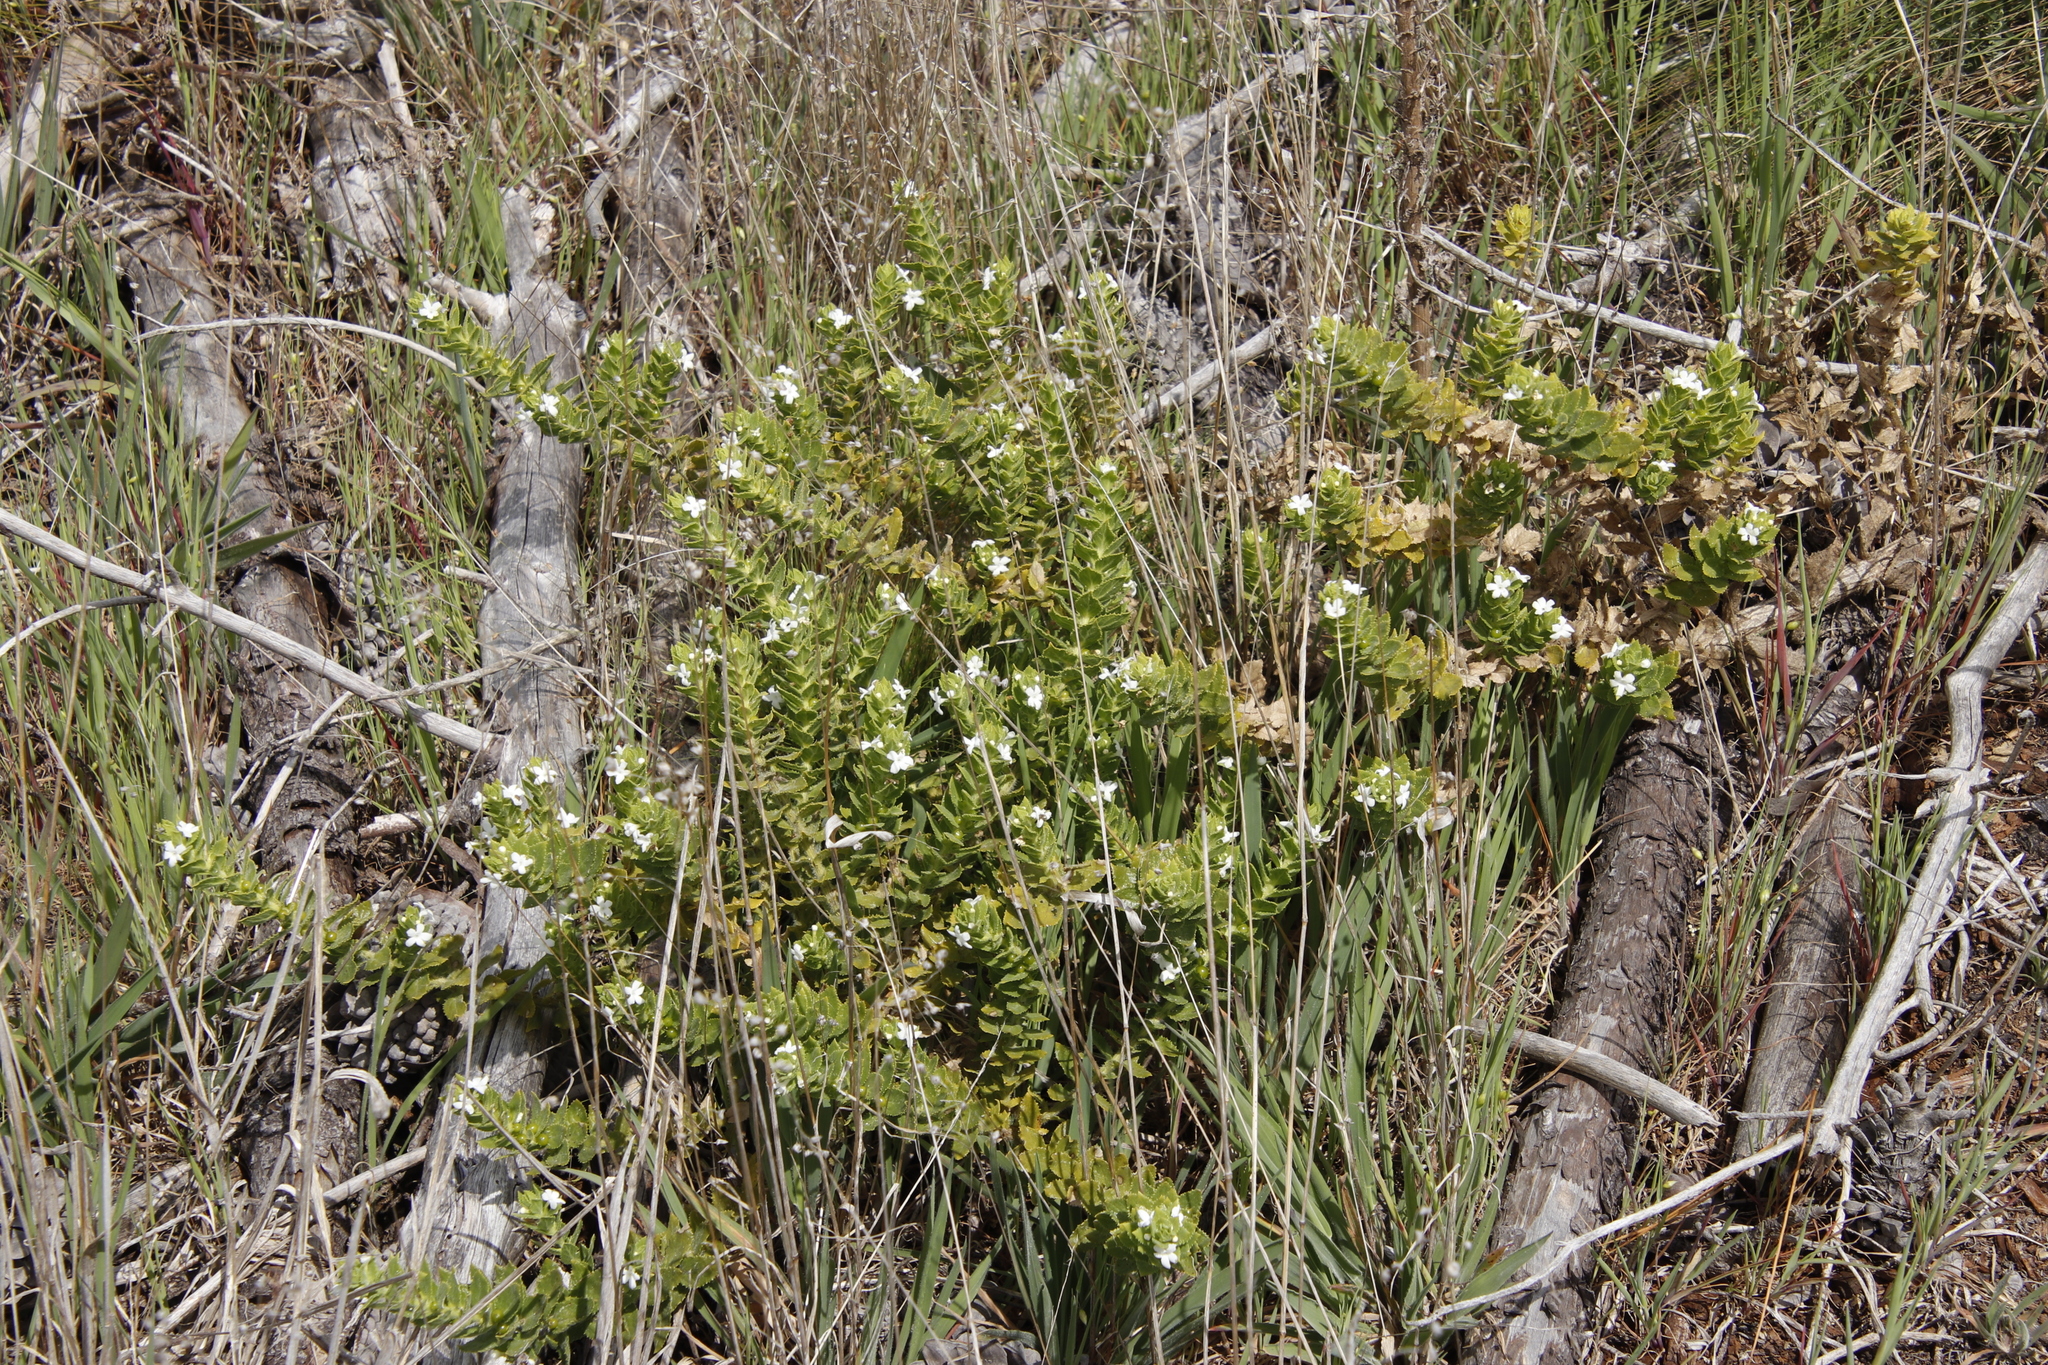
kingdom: Plantae
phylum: Tracheophyta
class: Magnoliopsida
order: Lamiales
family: Scrophulariaceae
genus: Oftia
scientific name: Oftia africana
